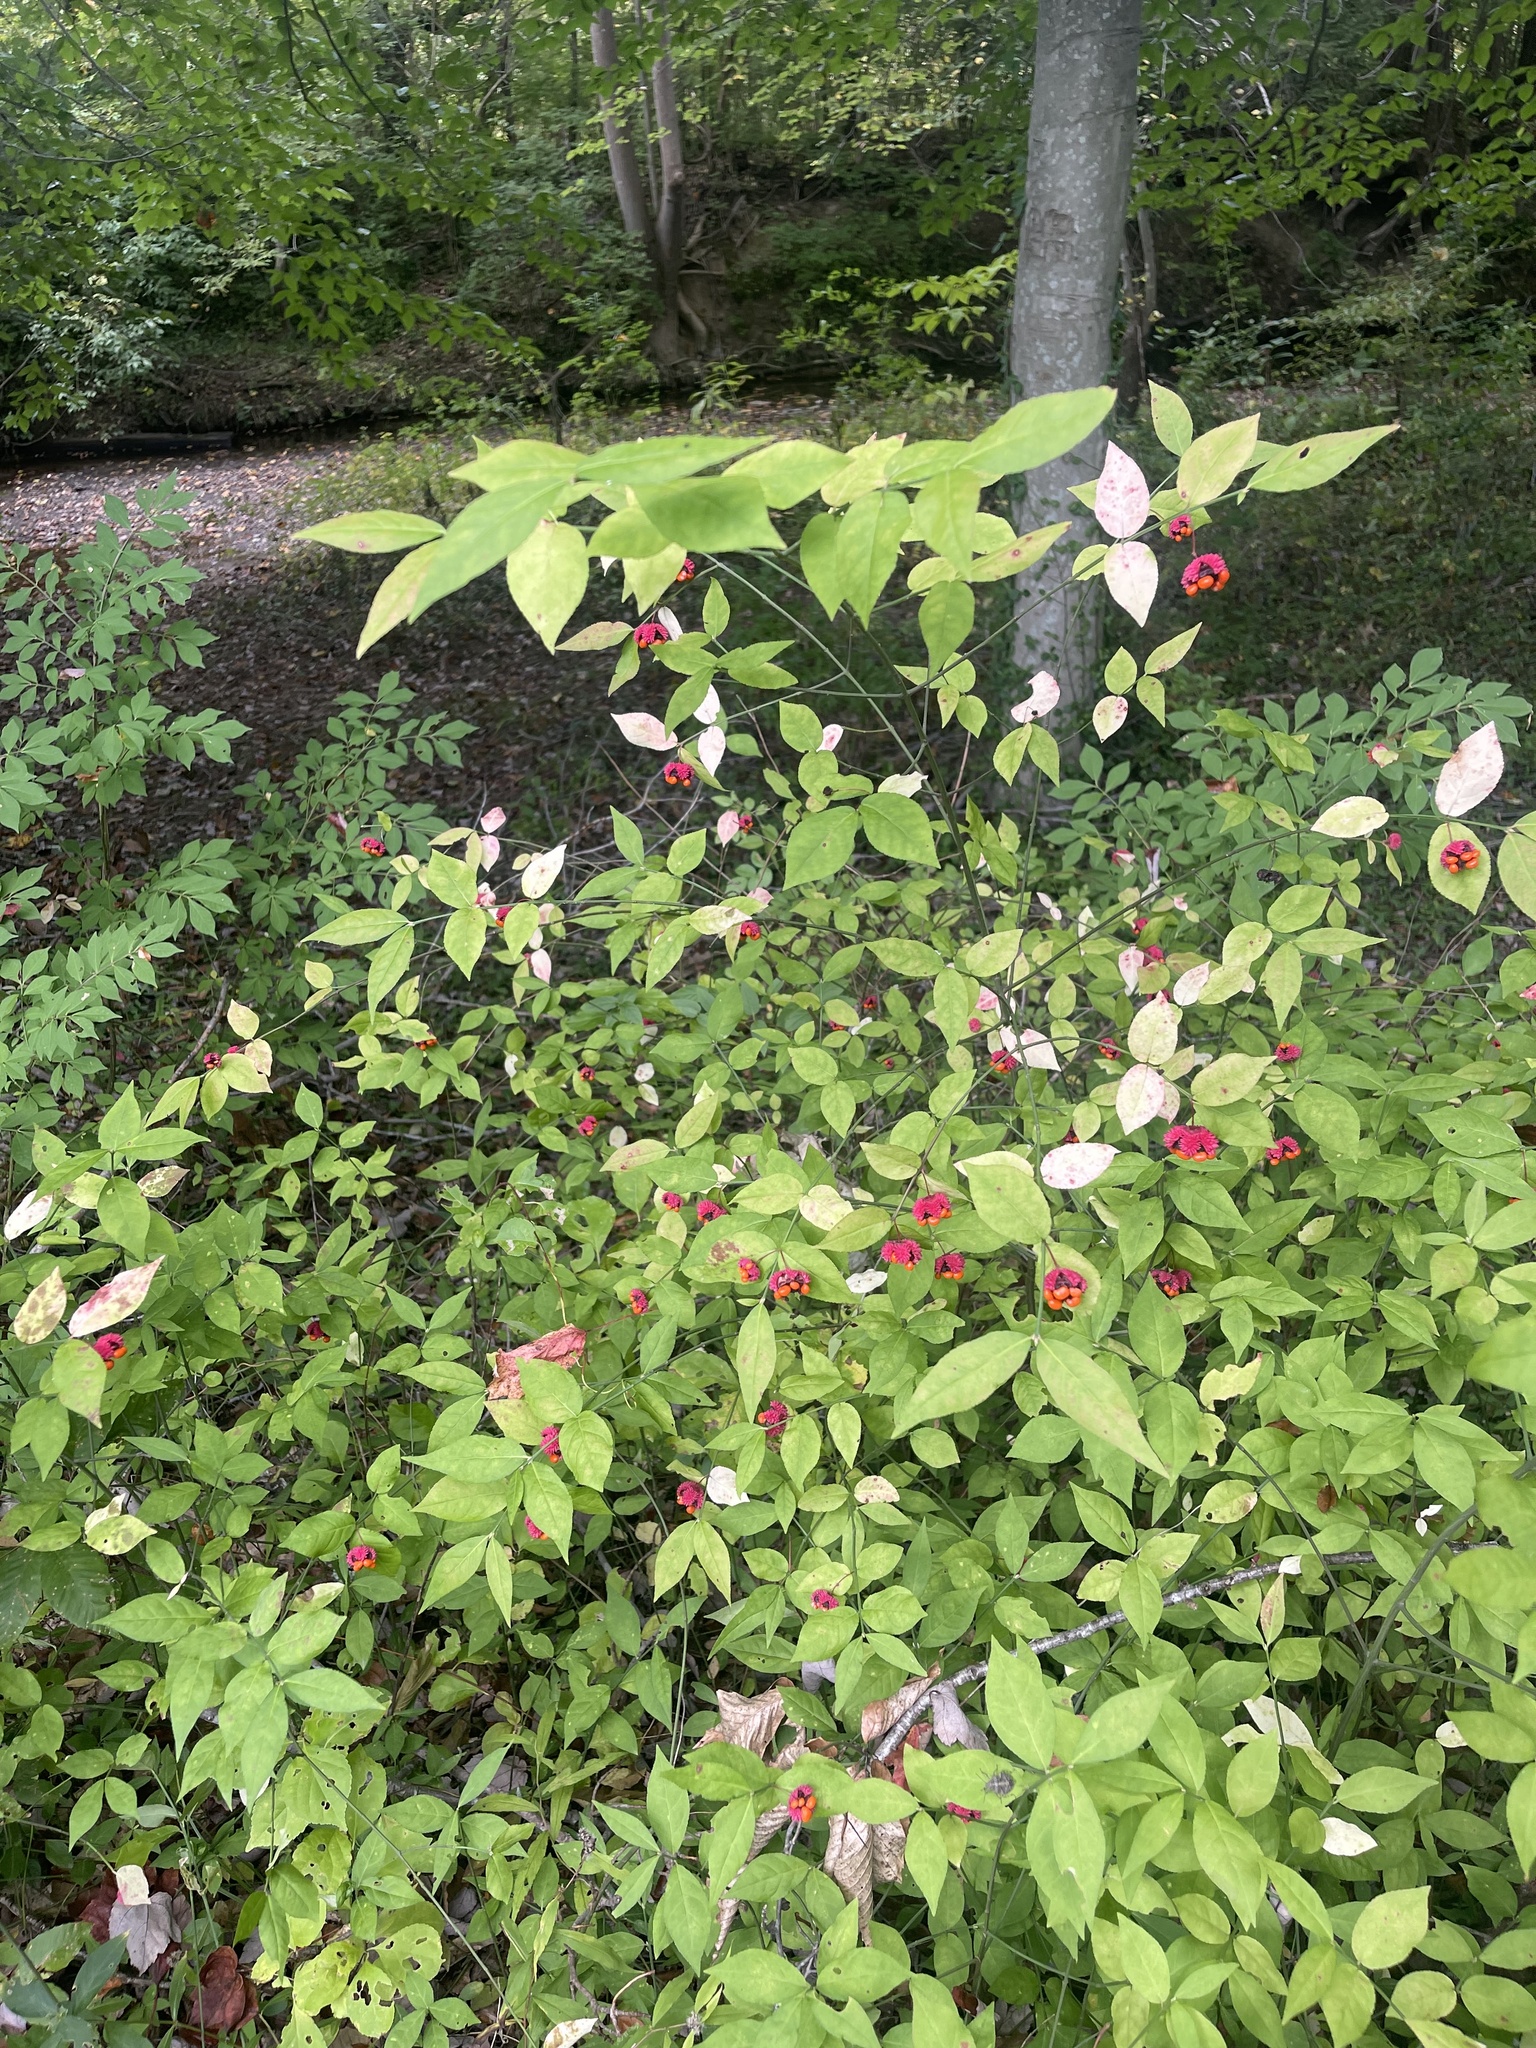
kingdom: Plantae
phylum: Tracheophyta
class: Magnoliopsida
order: Celastrales
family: Celastraceae
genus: Euonymus
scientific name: Euonymus americanus
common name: Bursting-heart
